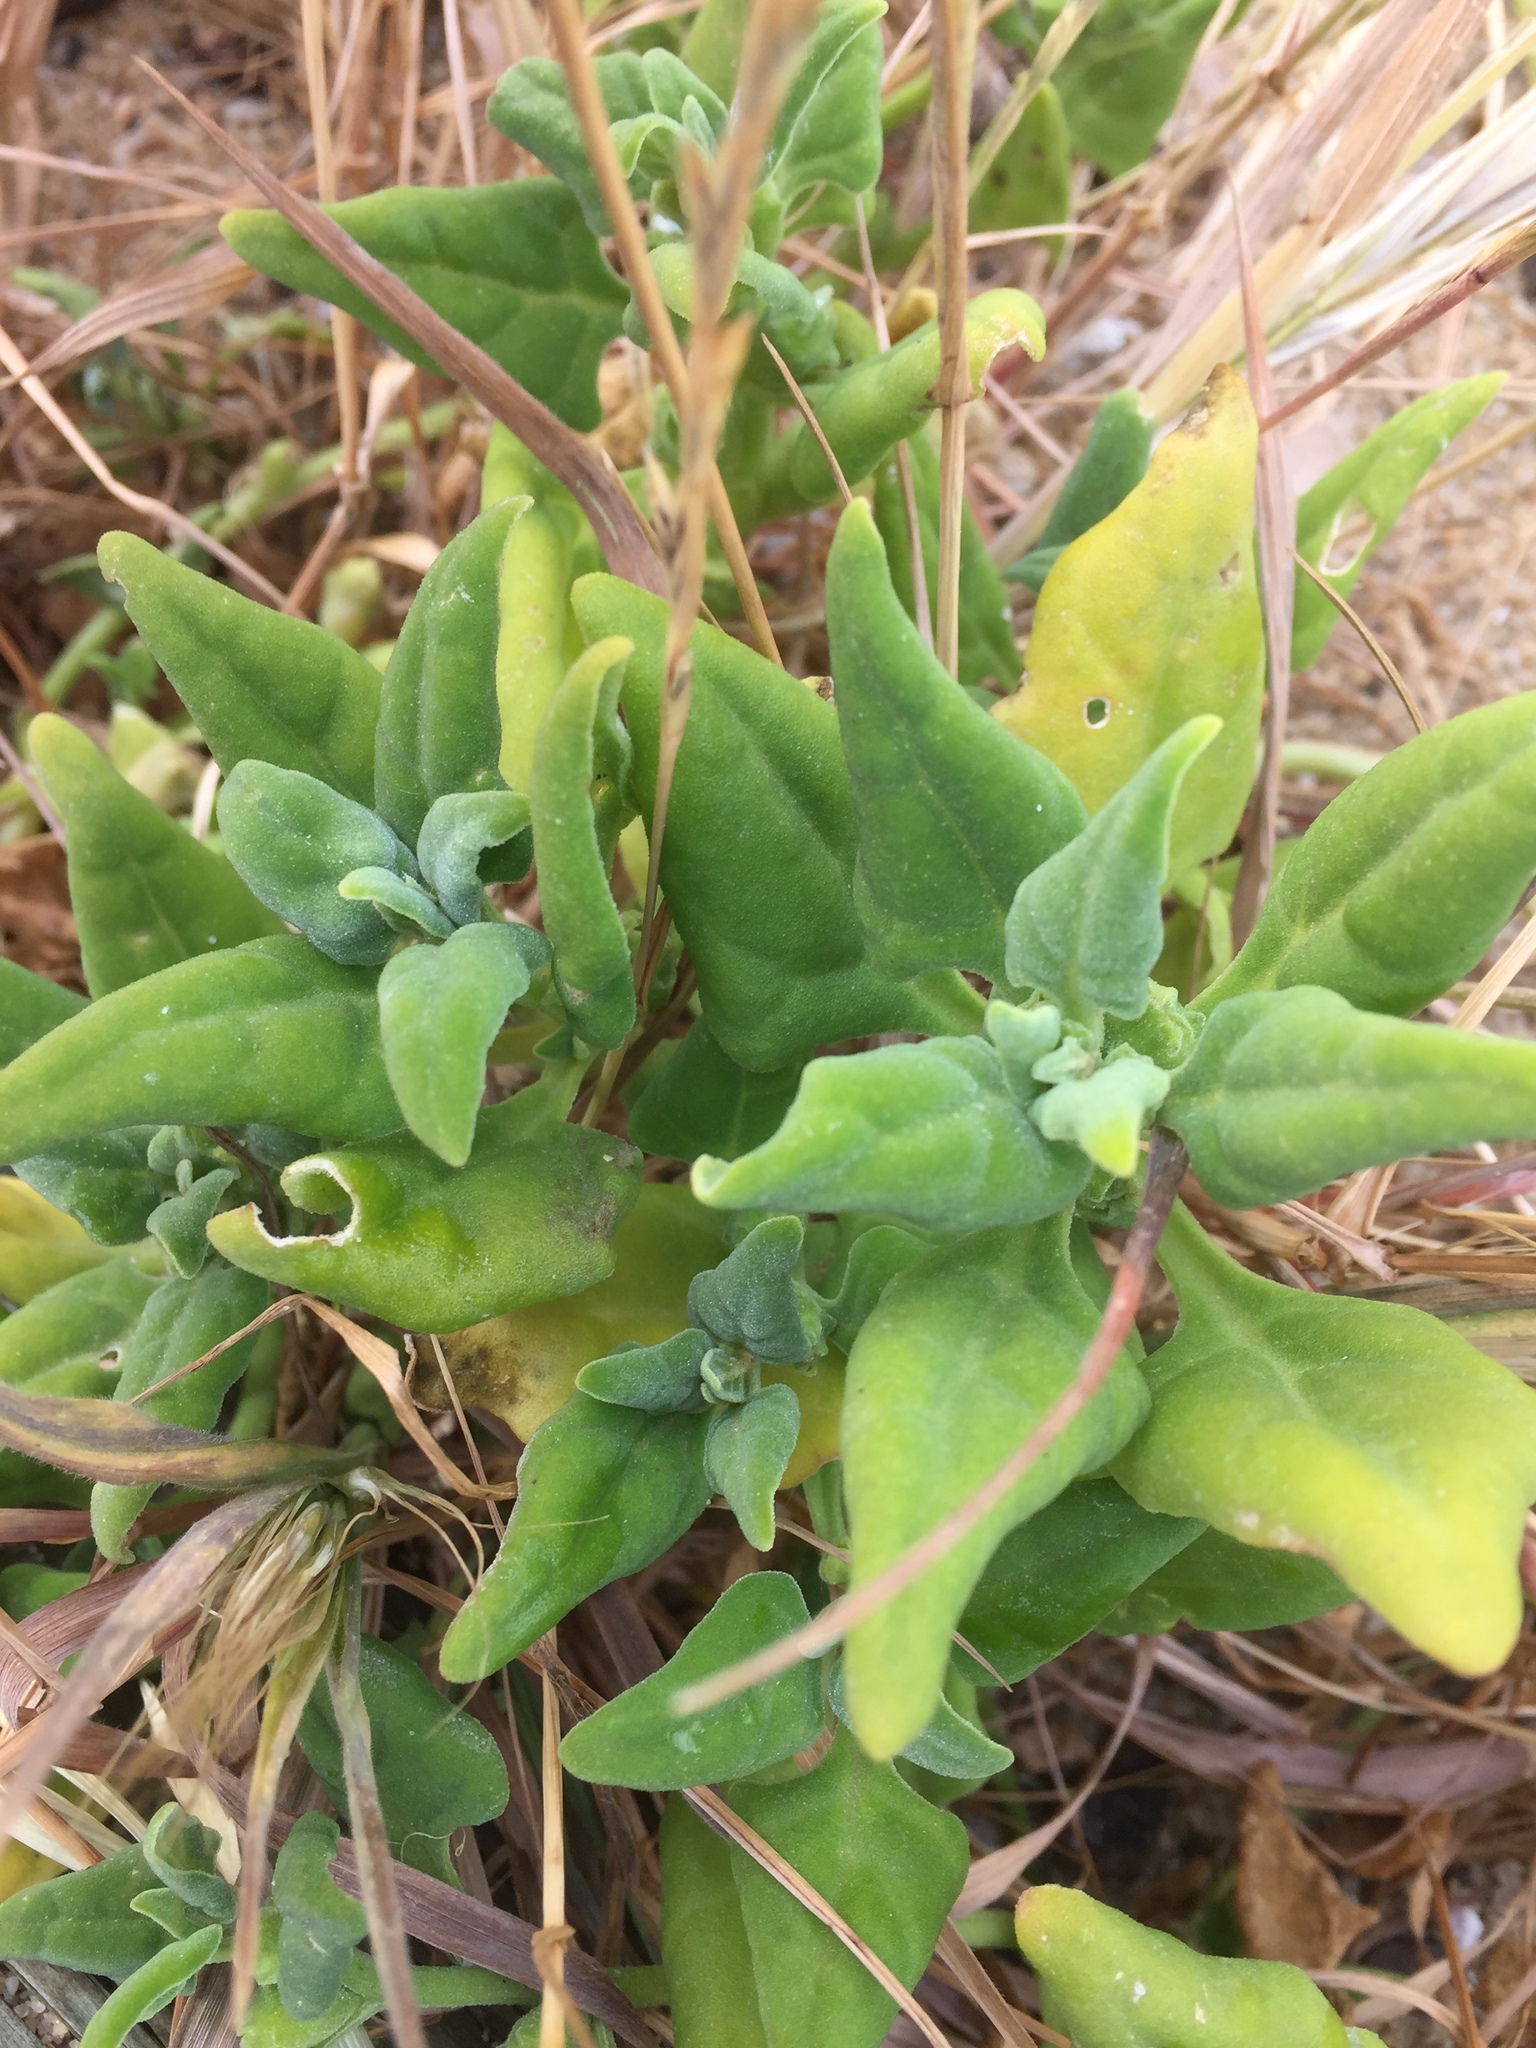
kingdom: Plantae
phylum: Tracheophyta
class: Magnoliopsida
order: Caryophyllales
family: Aizoaceae
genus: Tetragonia
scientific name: Tetragonia tetragonoides
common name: New zealand-spinach
